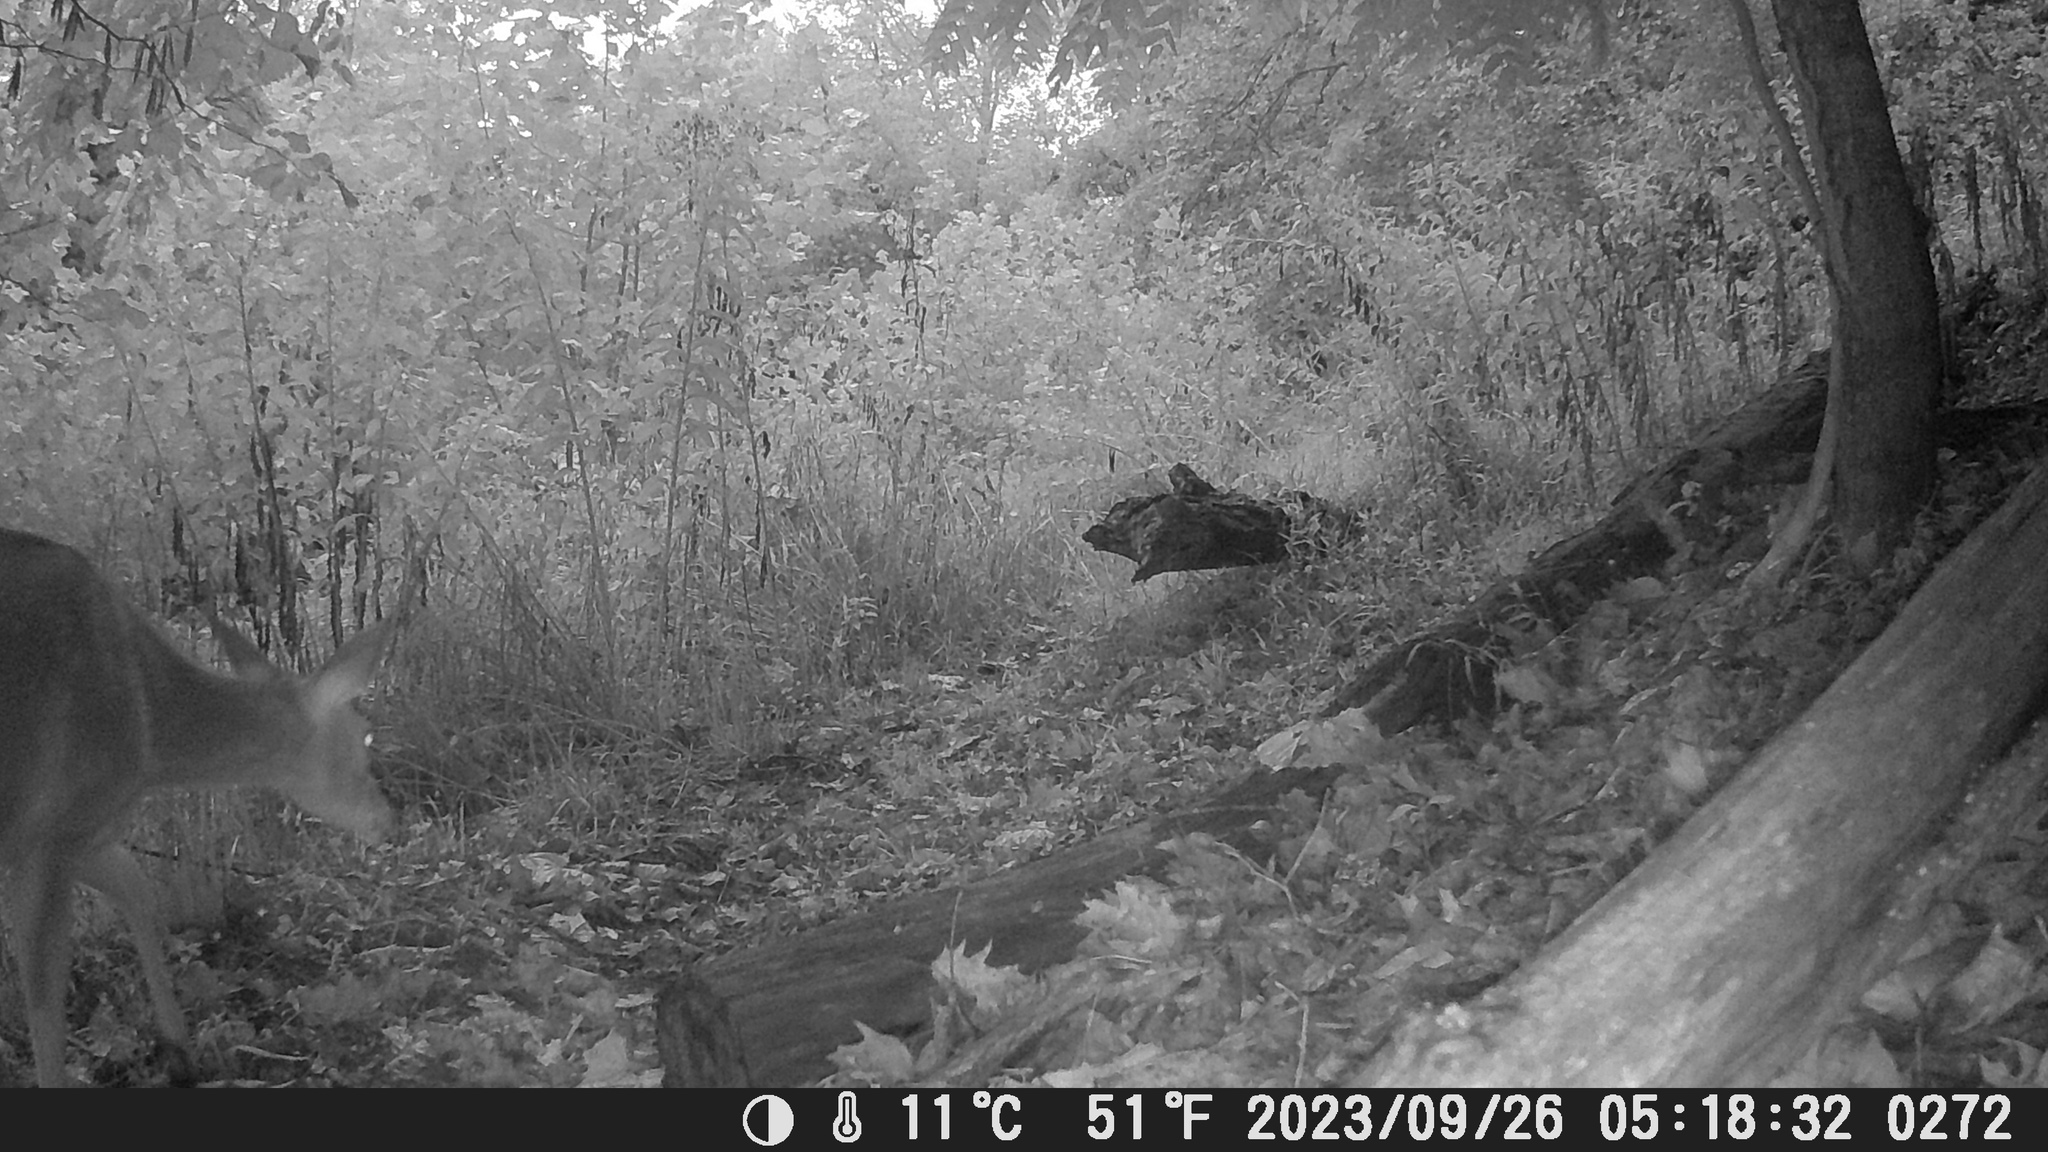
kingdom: Animalia
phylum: Chordata
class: Mammalia
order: Artiodactyla
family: Cervidae
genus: Odocoileus
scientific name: Odocoileus virginianus
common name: White-tailed deer
